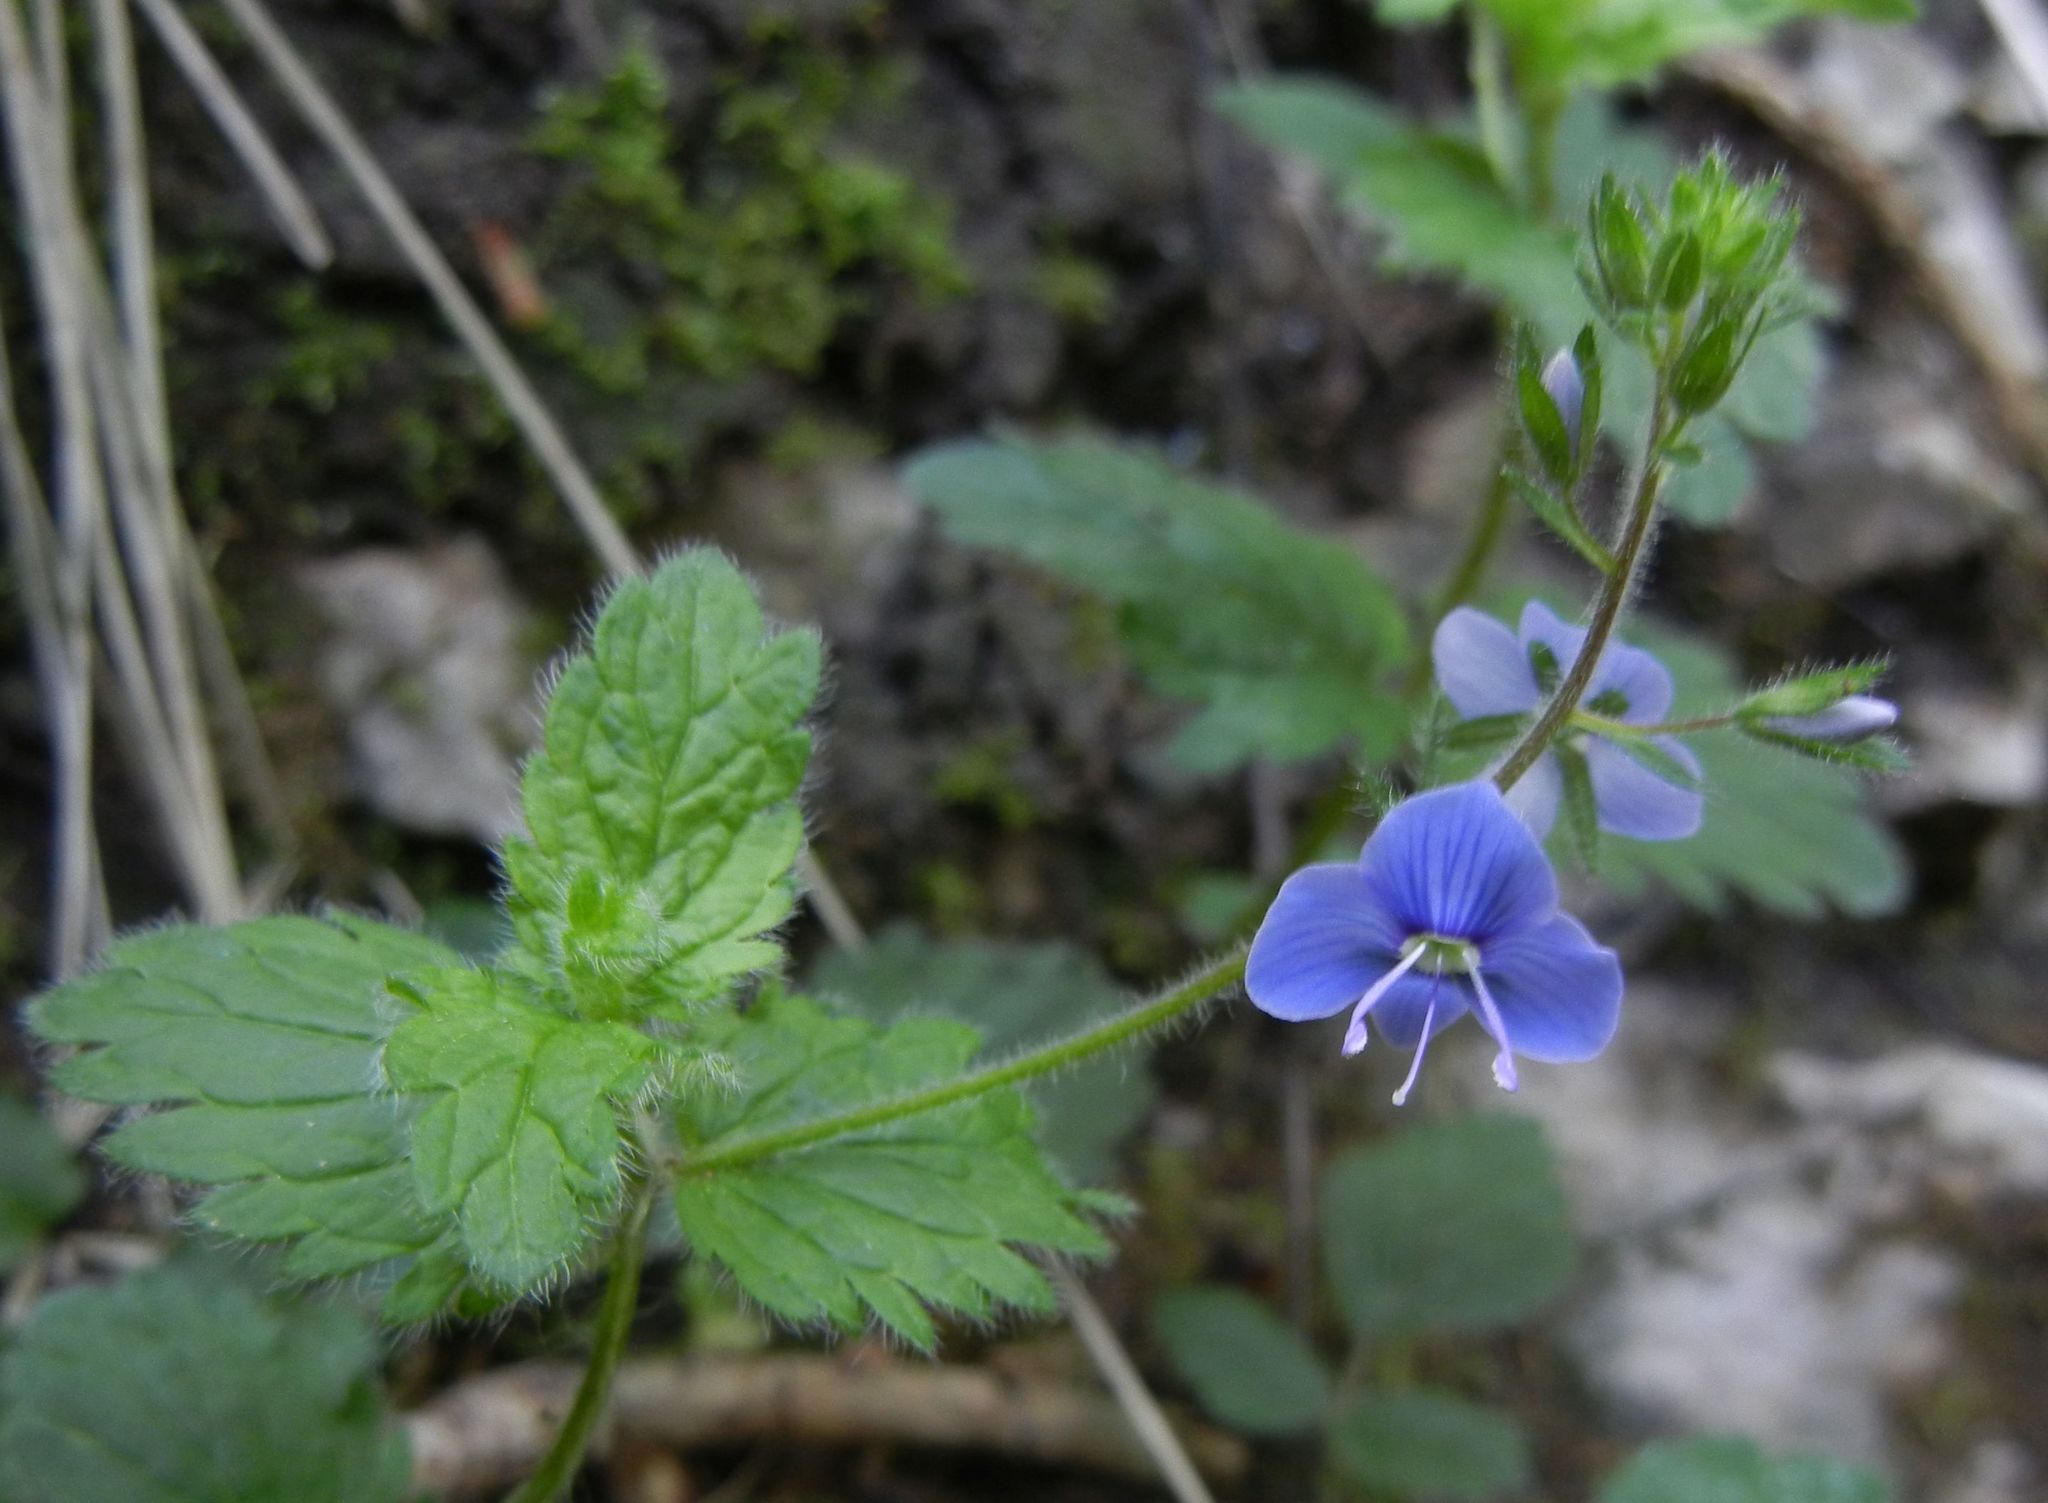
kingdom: Plantae
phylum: Tracheophyta
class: Magnoliopsida
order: Lamiales
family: Plantaginaceae
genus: Veronica
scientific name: Veronica chamaedrys
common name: Germander speedwell
